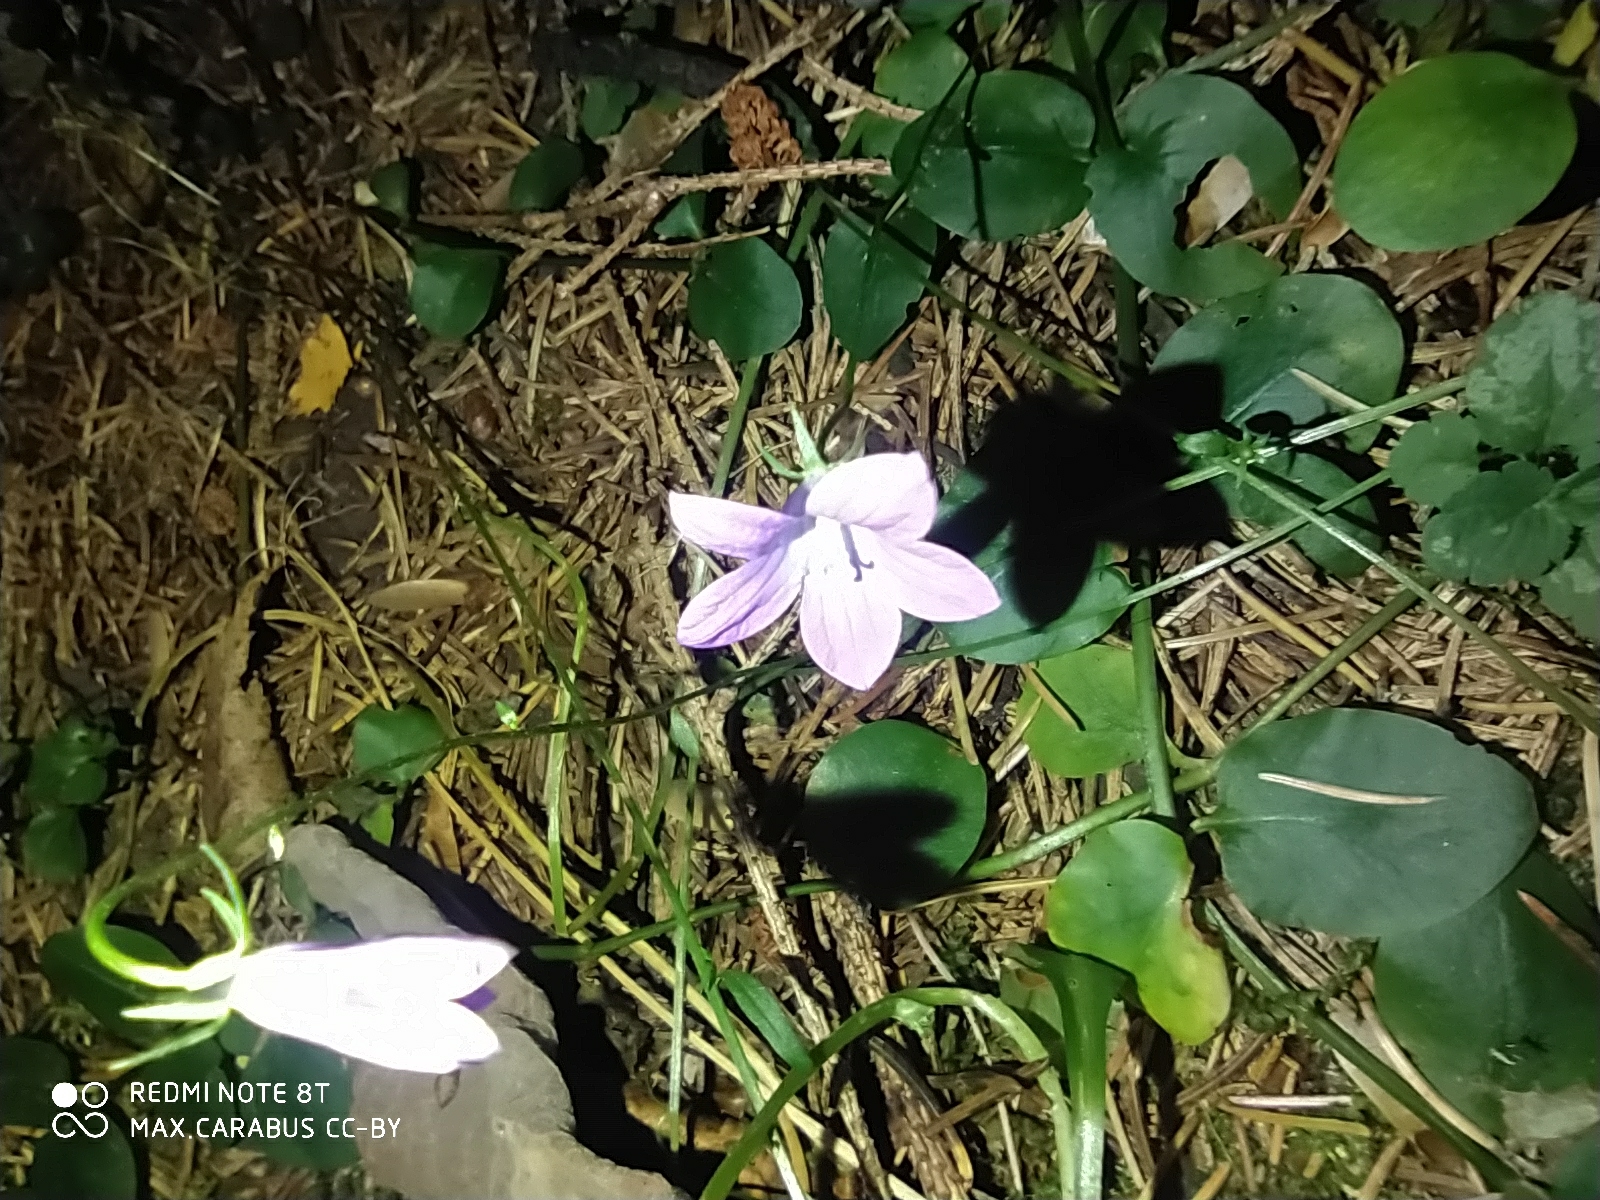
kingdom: Plantae
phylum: Tracheophyta
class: Magnoliopsida
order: Asterales
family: Campanulaceae
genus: Campanula
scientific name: Campanula patula
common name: Spreading bellflower
